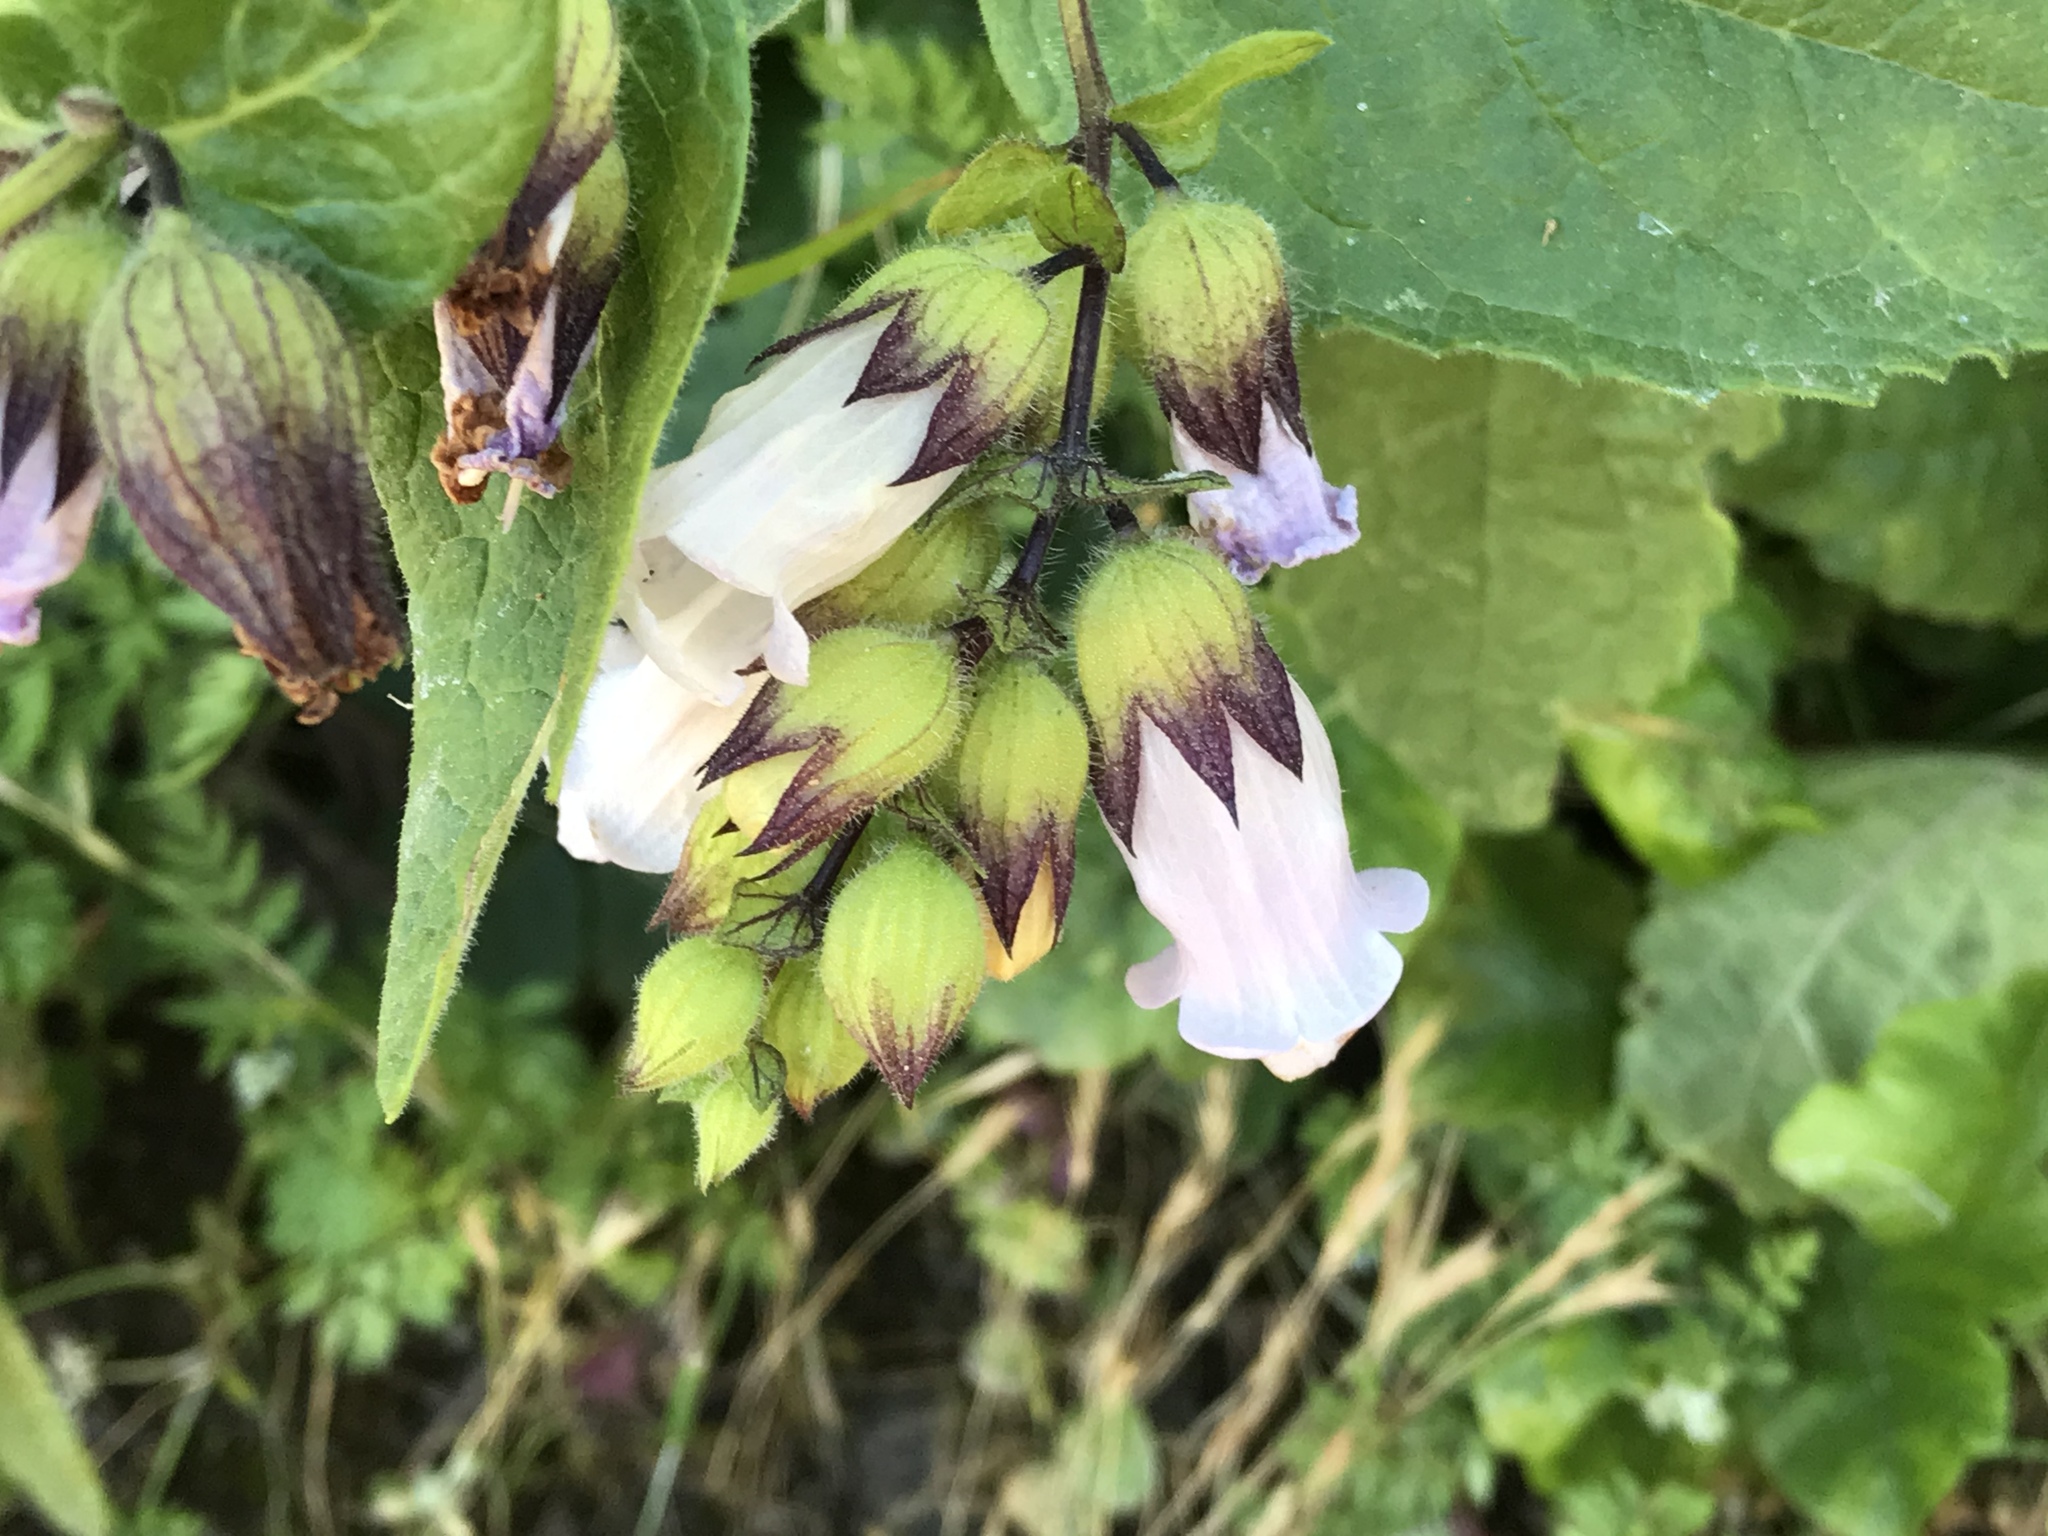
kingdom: Plantae
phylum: Tracheophyta
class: Magnoliopsida
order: Lamiales
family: Lamiaceae
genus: Lepechinia
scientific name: Lepechinia calycina
